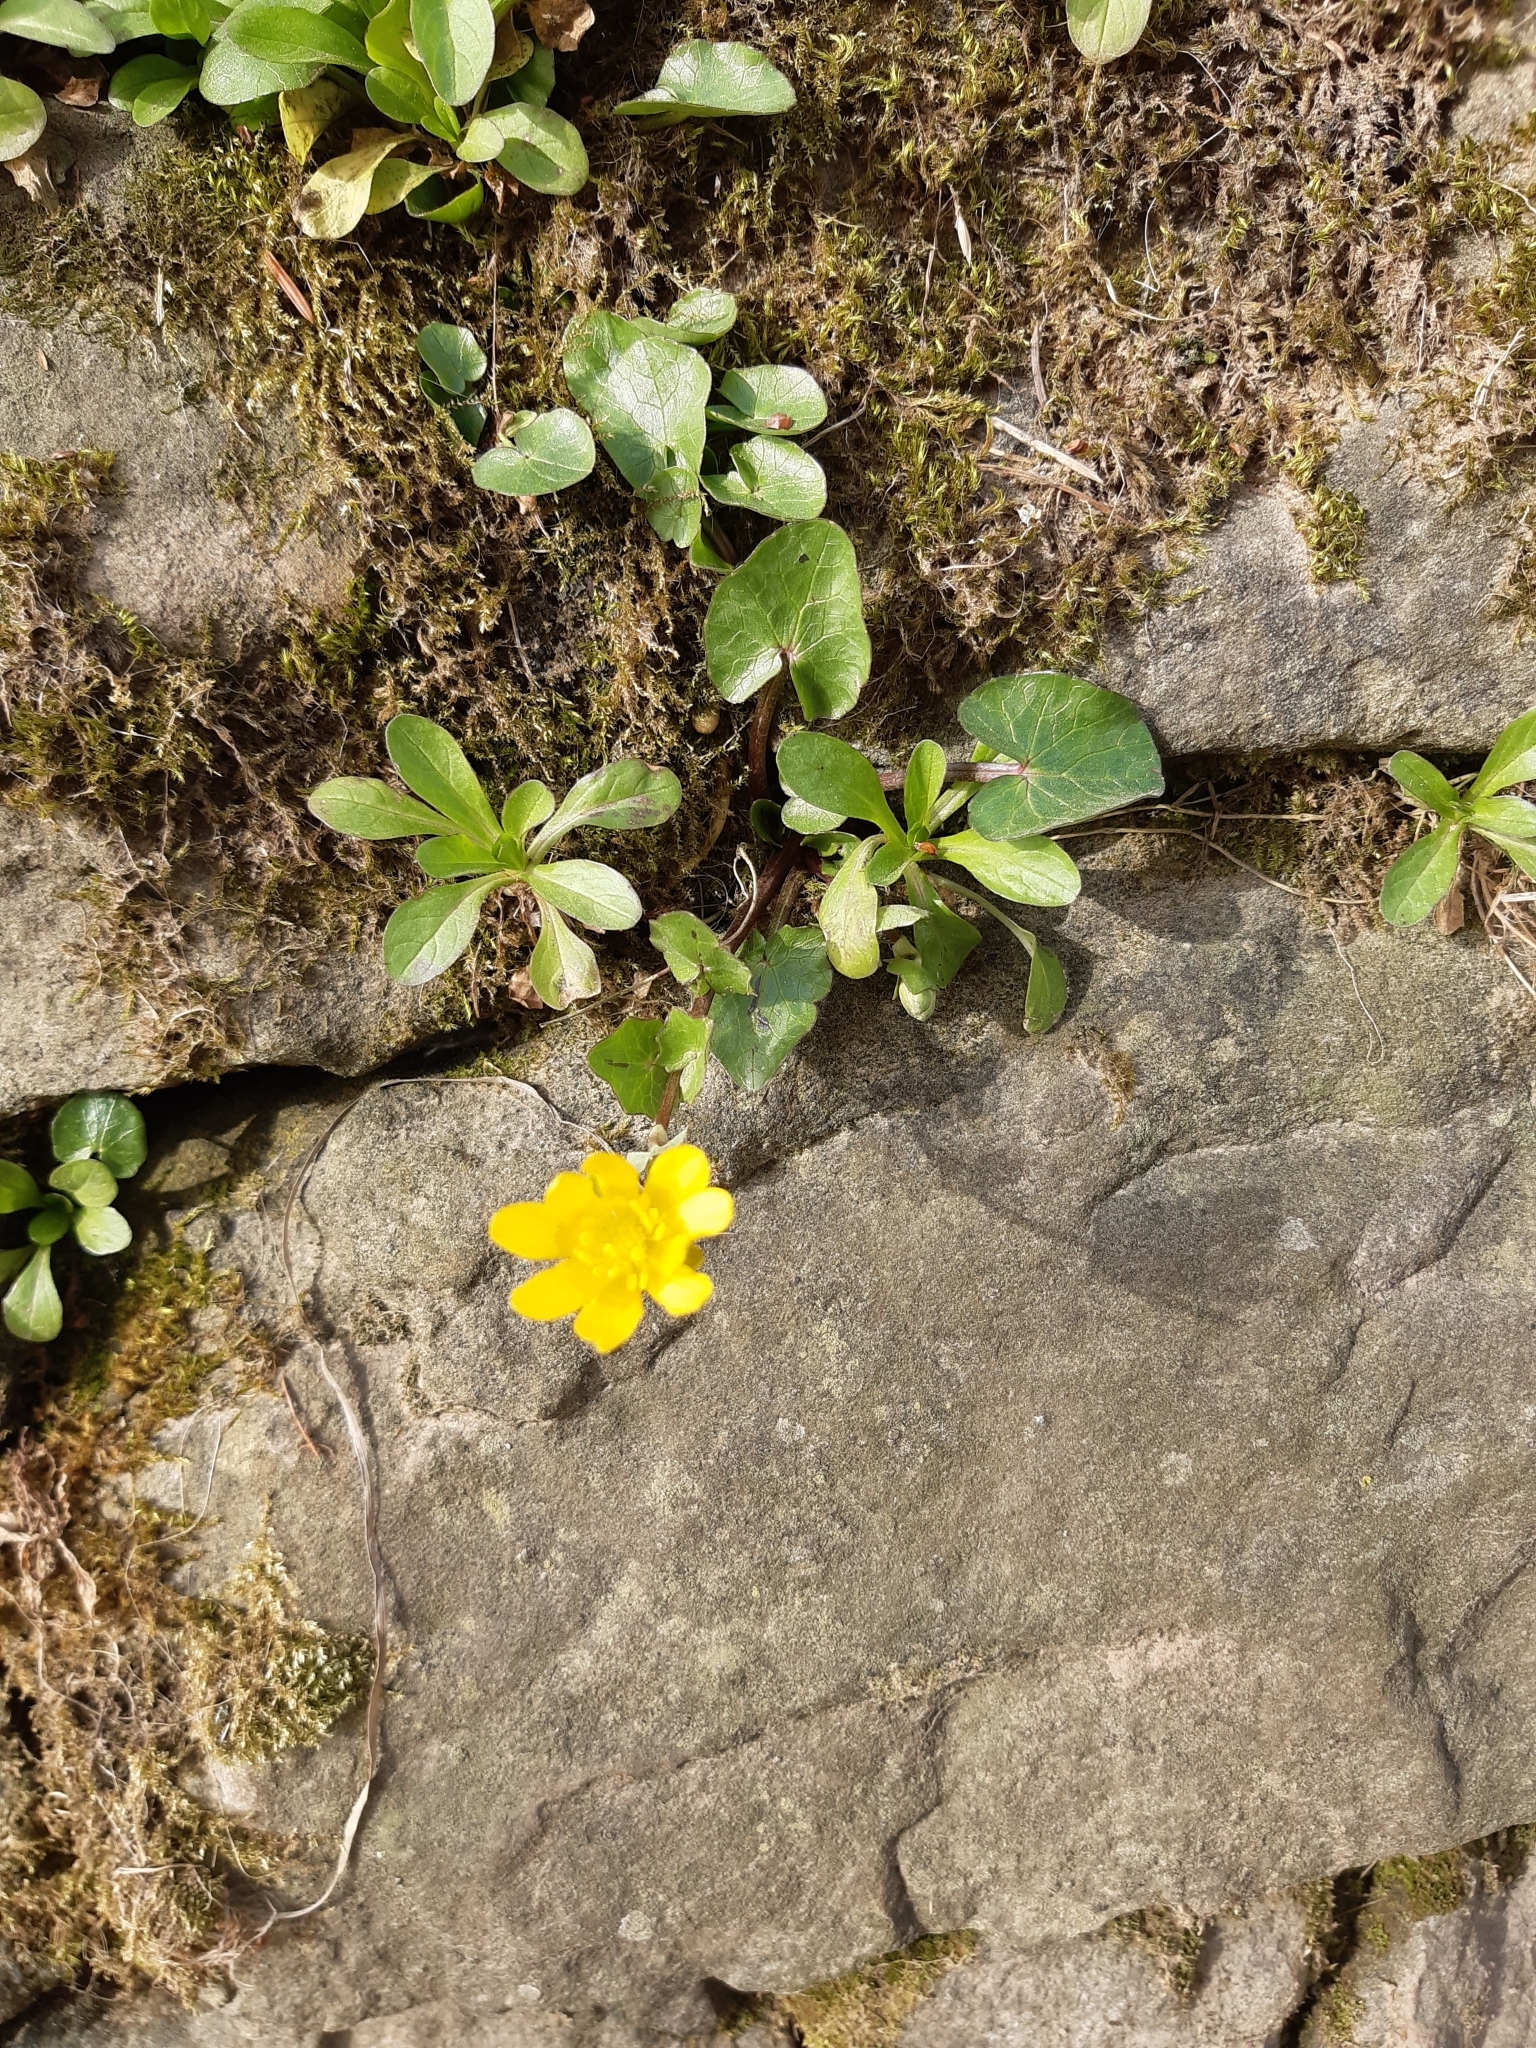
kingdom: Plantae
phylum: Tracheophyta
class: Magnoliopsida
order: Ranunculales
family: Ranunculaceae
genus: Ficaria
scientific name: Ficaria verna
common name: Lesser celandine
